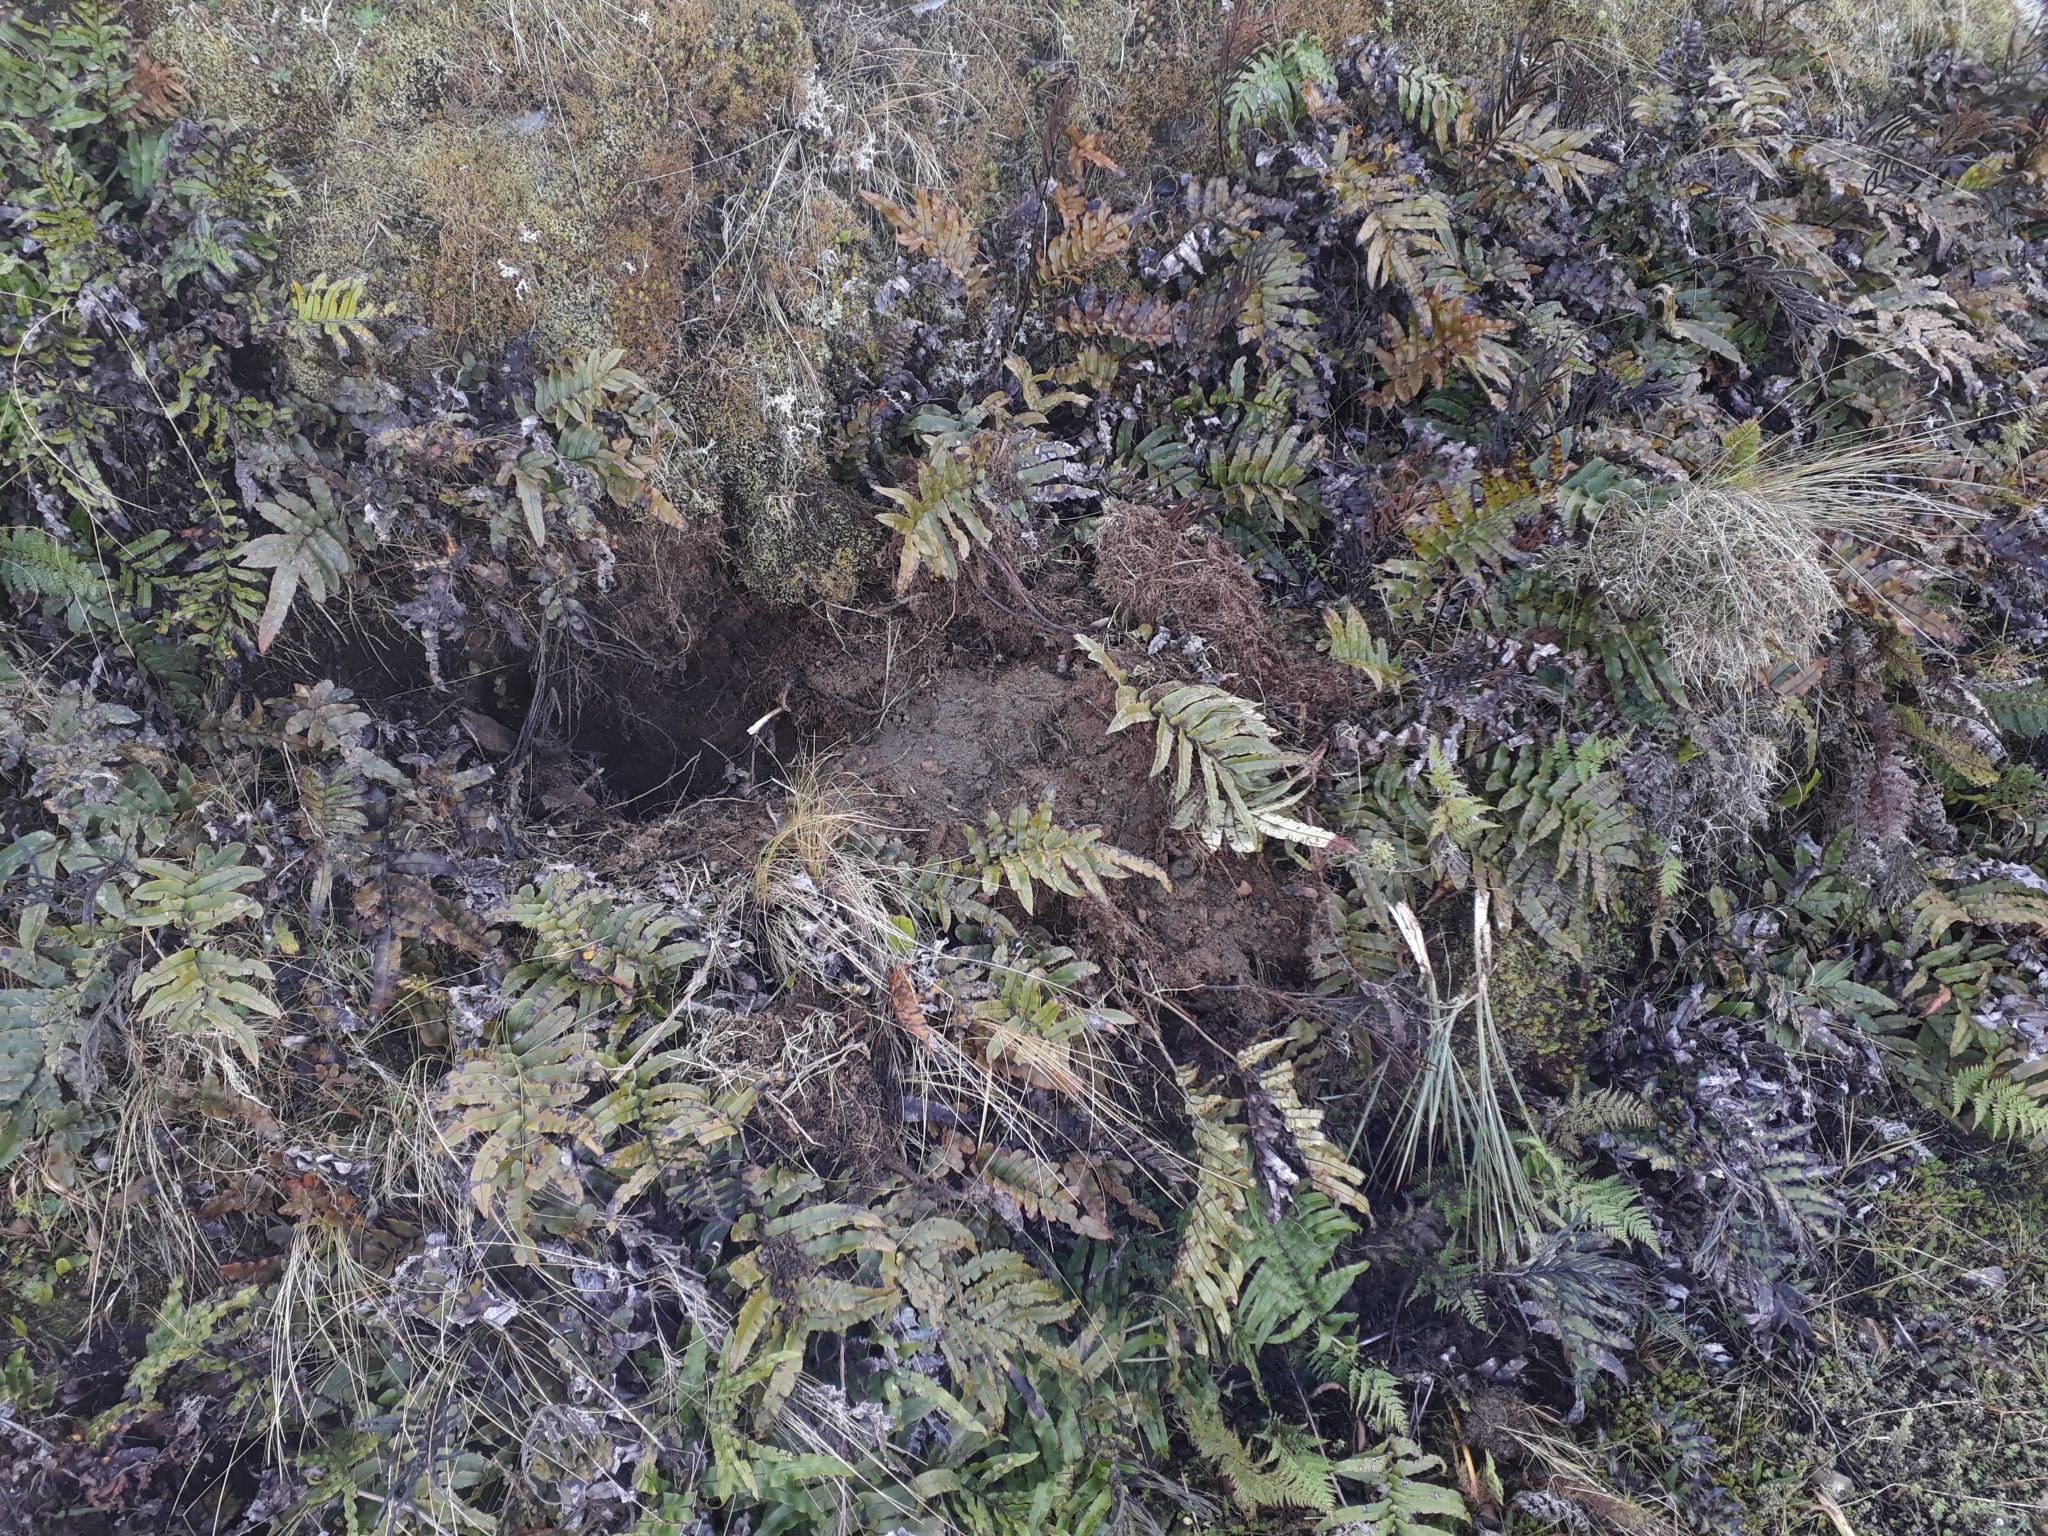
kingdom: Animalia
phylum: Chordata
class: Mammalia
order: Artiodactyla
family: Suidae
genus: Sus
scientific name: Sus scrofa
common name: Wild boar
